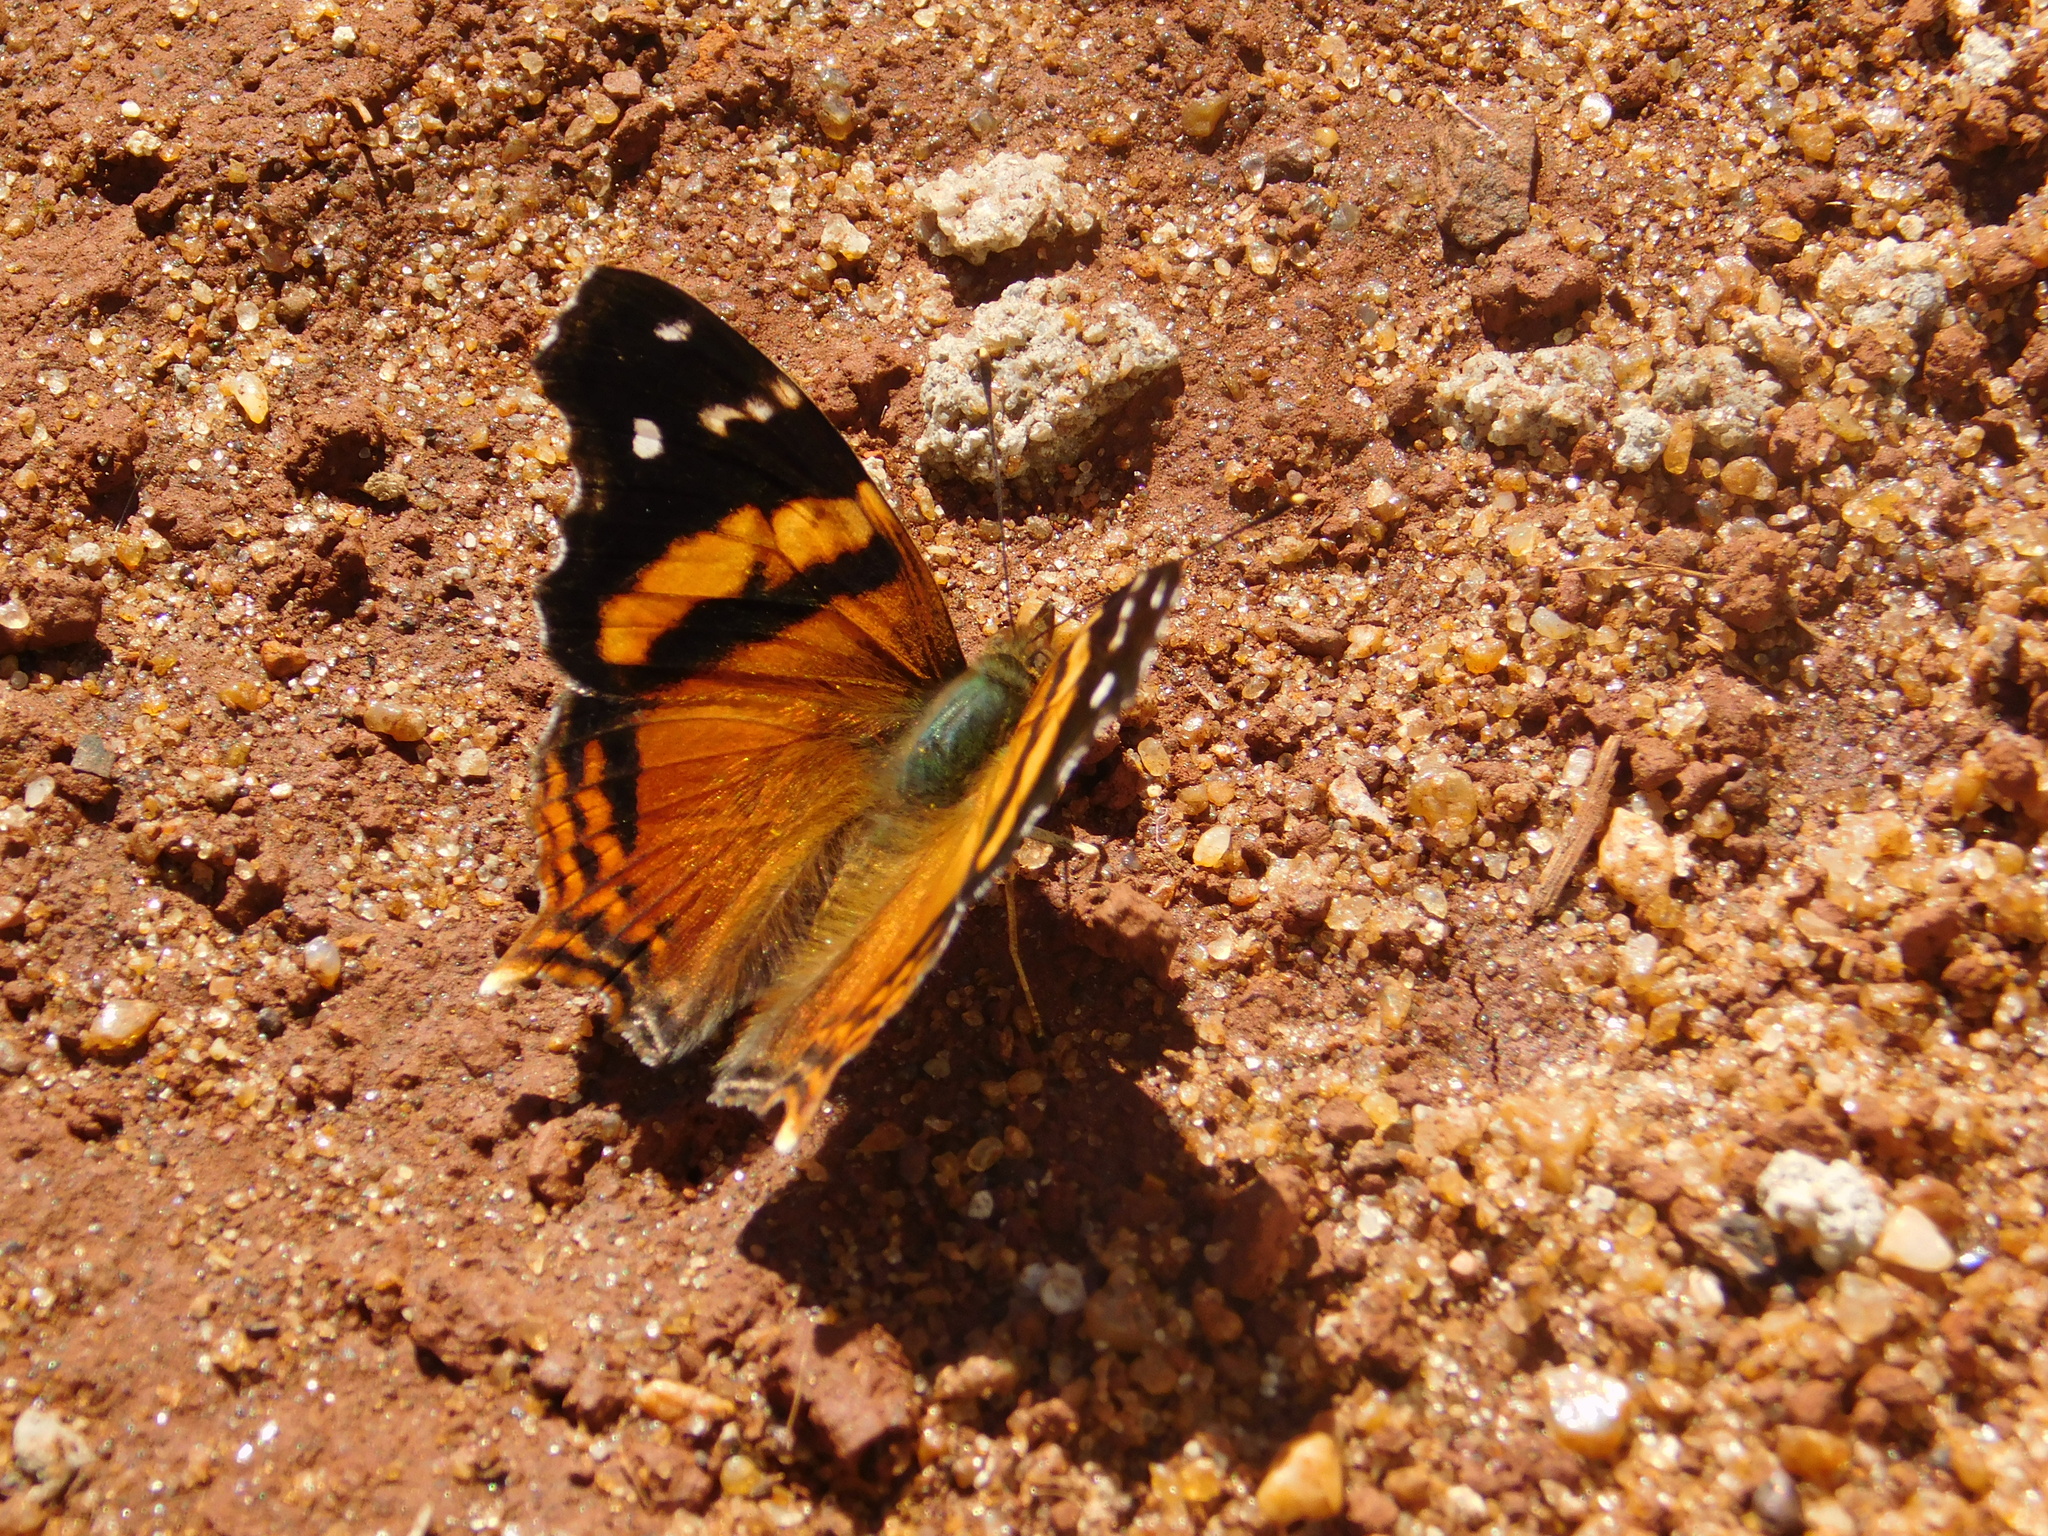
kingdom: Animalia
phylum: Arthropoda
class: Insecta
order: Lepidoptera
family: Nymphalidae
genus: Hypanartia
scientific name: Hypanartia bella
